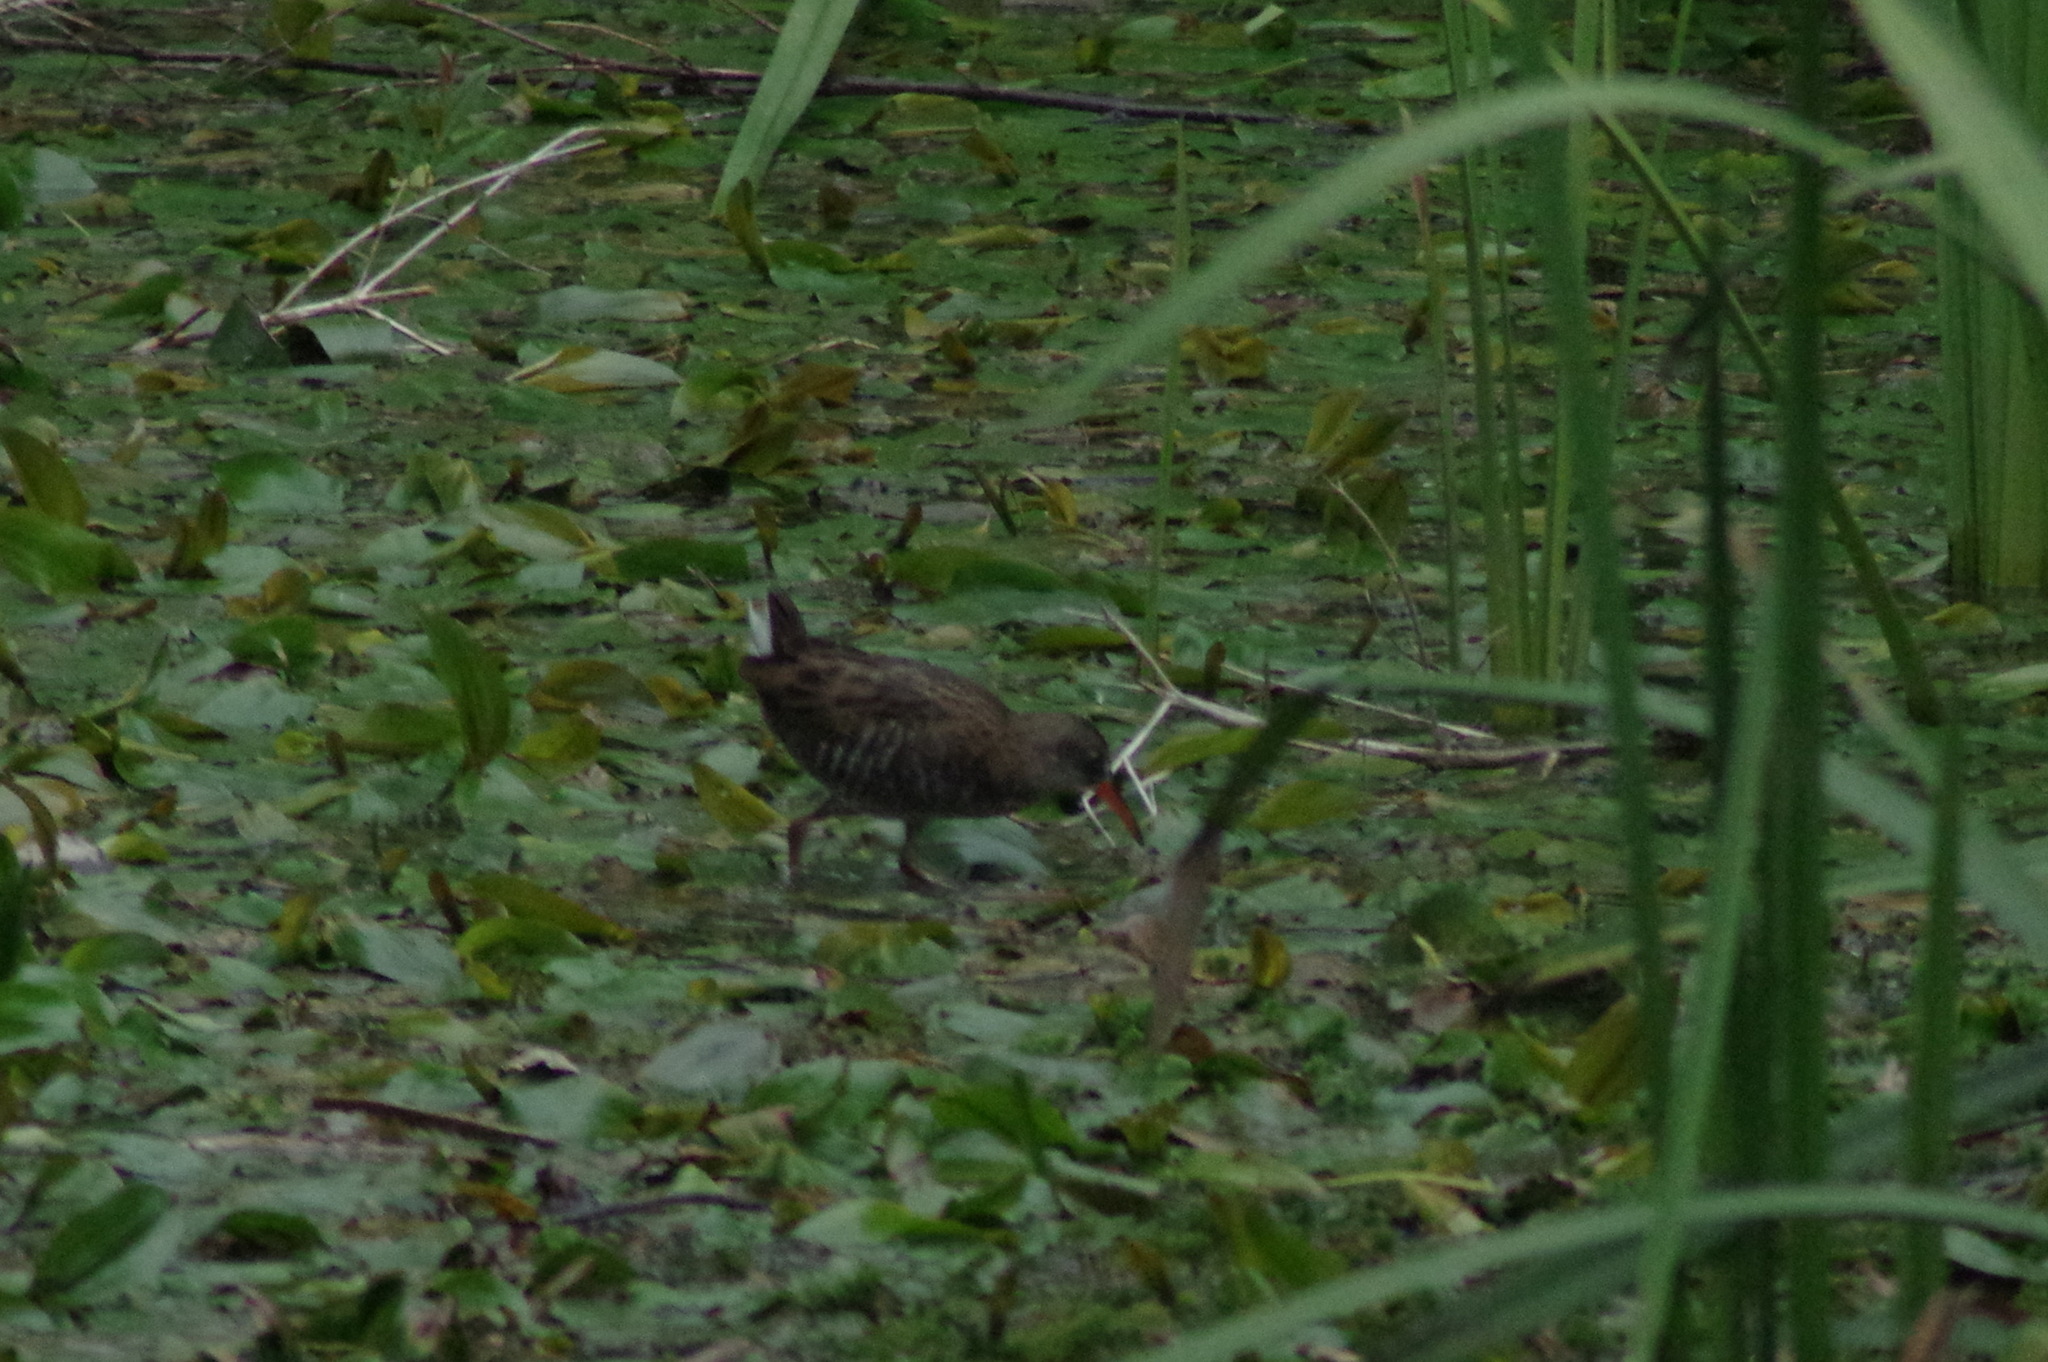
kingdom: Animalia
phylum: Chordata
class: Aves
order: Gruiformes
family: Rallidae
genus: Rallus
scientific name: Rallus aquaticus
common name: Water rail
